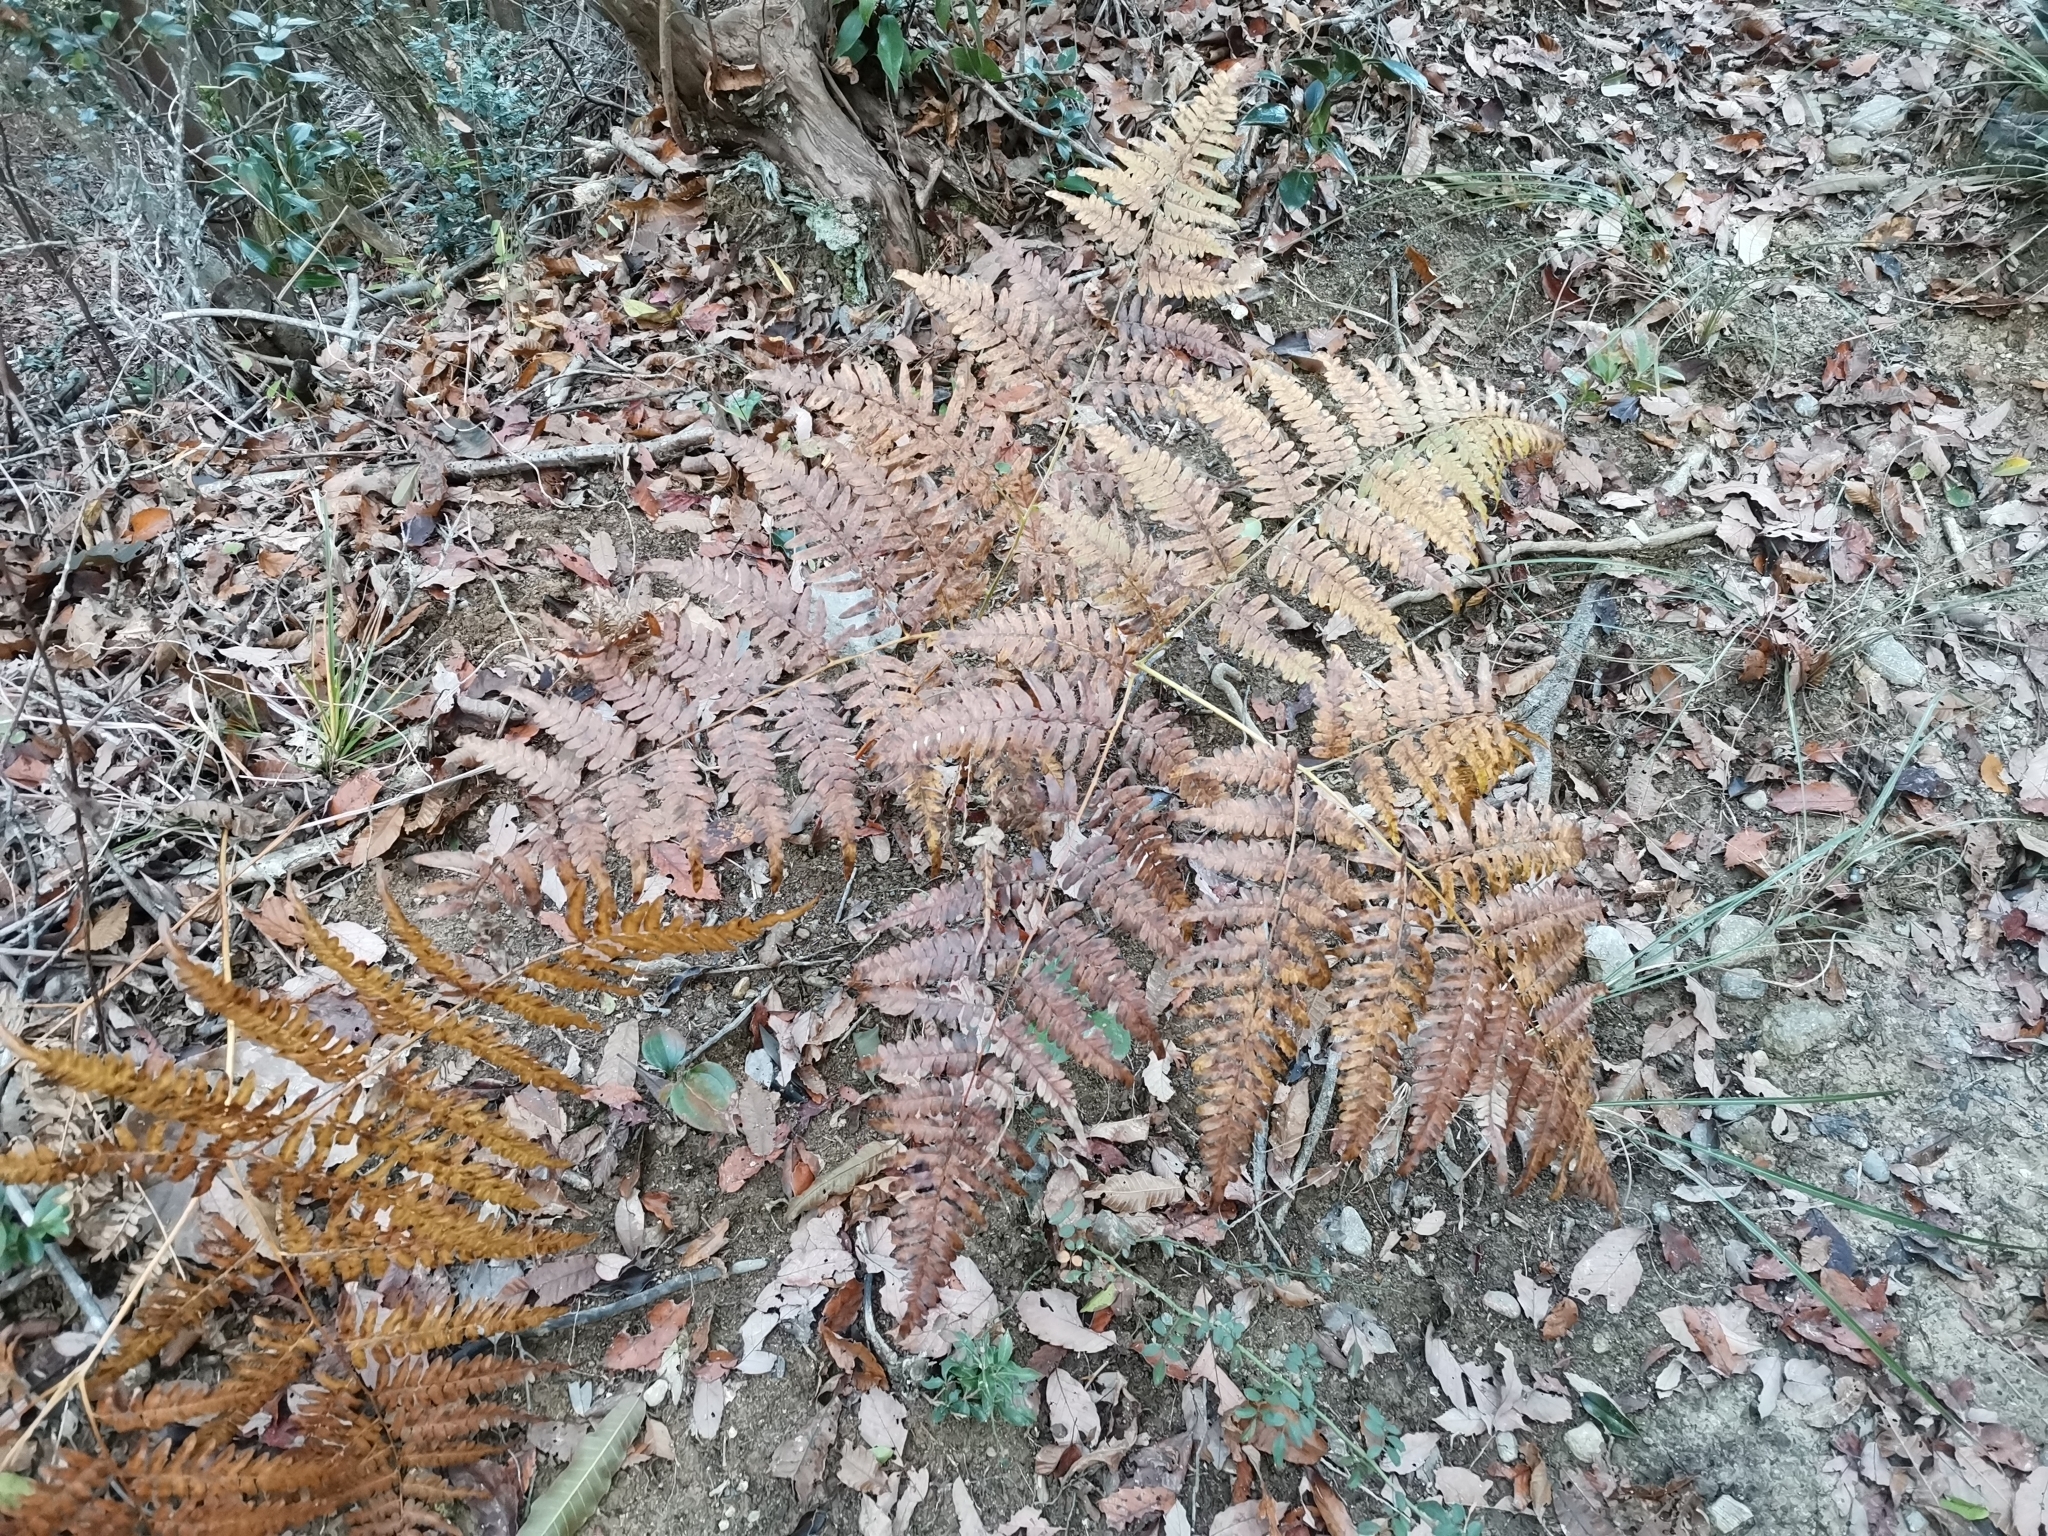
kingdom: Plantae
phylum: Tracheophyta
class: Polypodiopsida
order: Polypodiales
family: Dennstaedtiaceae
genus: Pteridium
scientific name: Pteridium aquilinum
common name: Bracken
